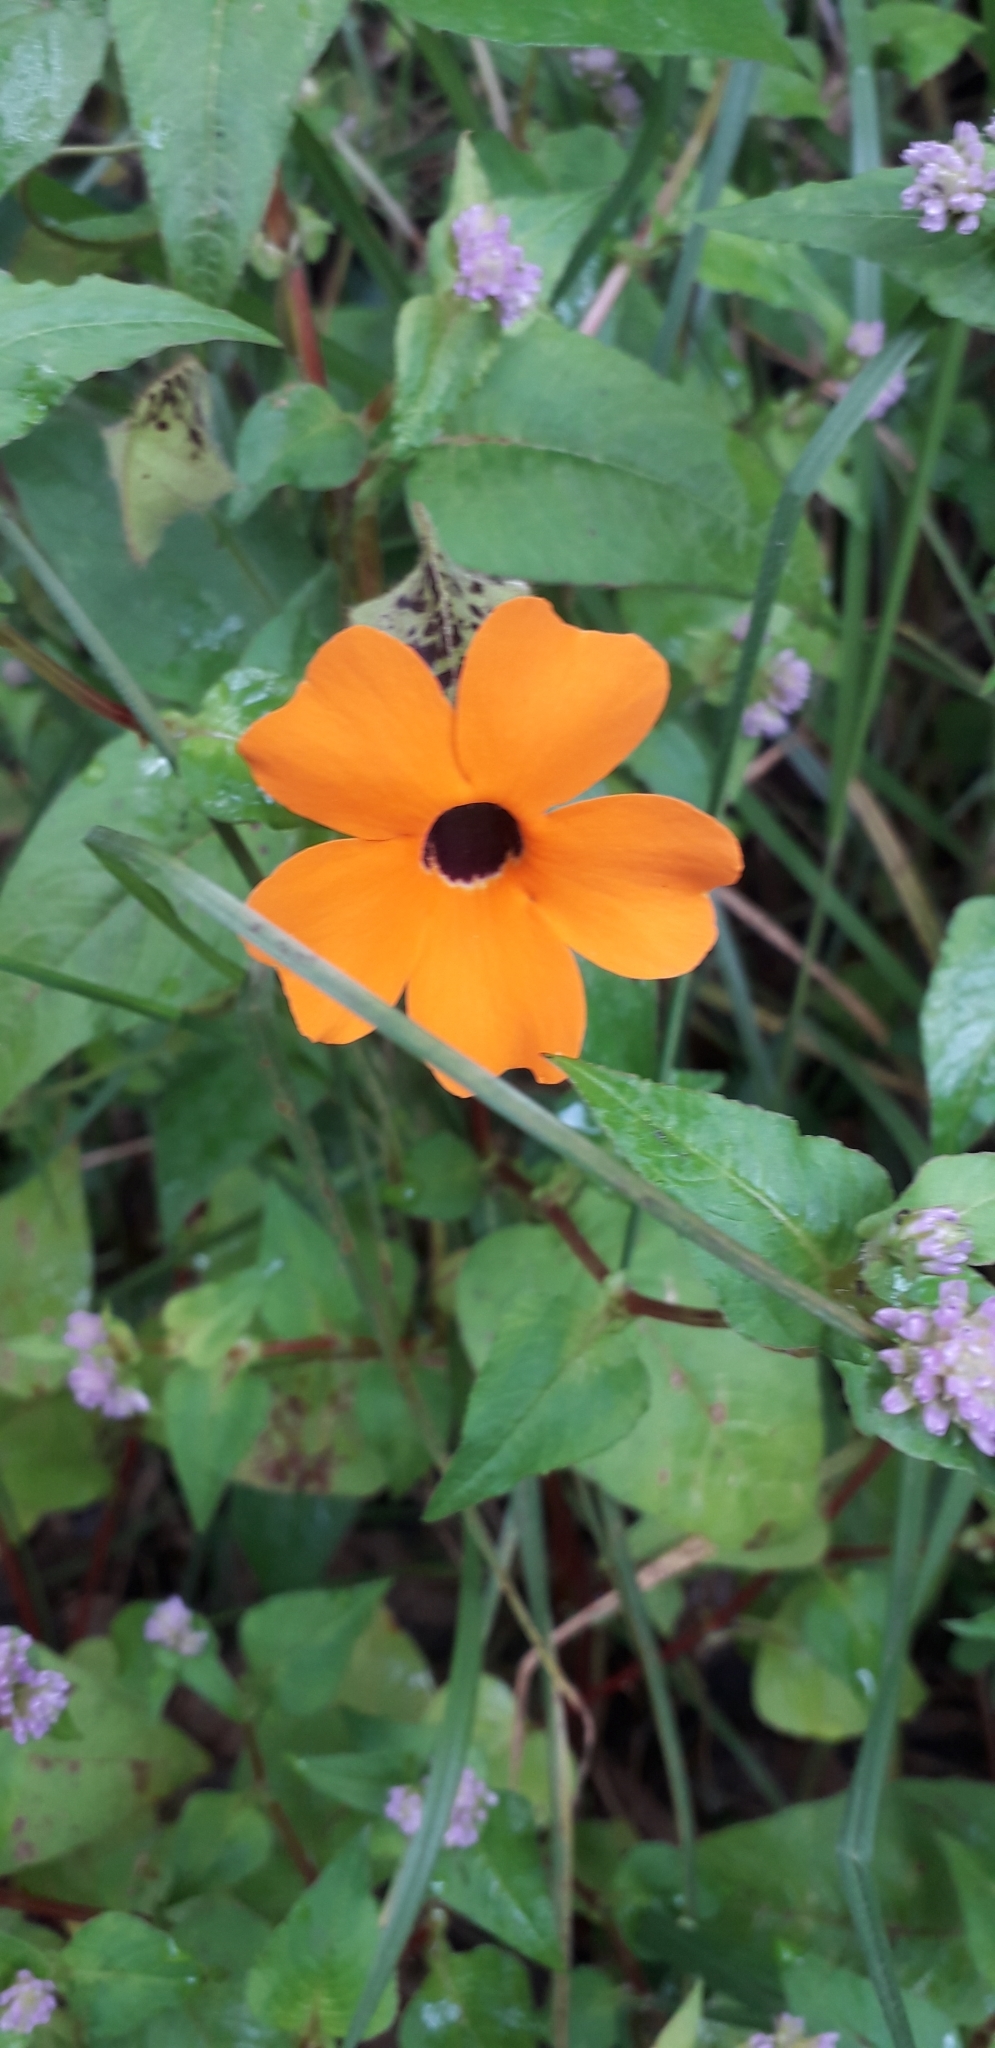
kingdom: Plantae
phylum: Tracheophyta
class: Magnoliopsida
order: Lamiales
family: Acanthaceae
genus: Thunbergia
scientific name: Thunbergia alata
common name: Blackeyed susan vine
